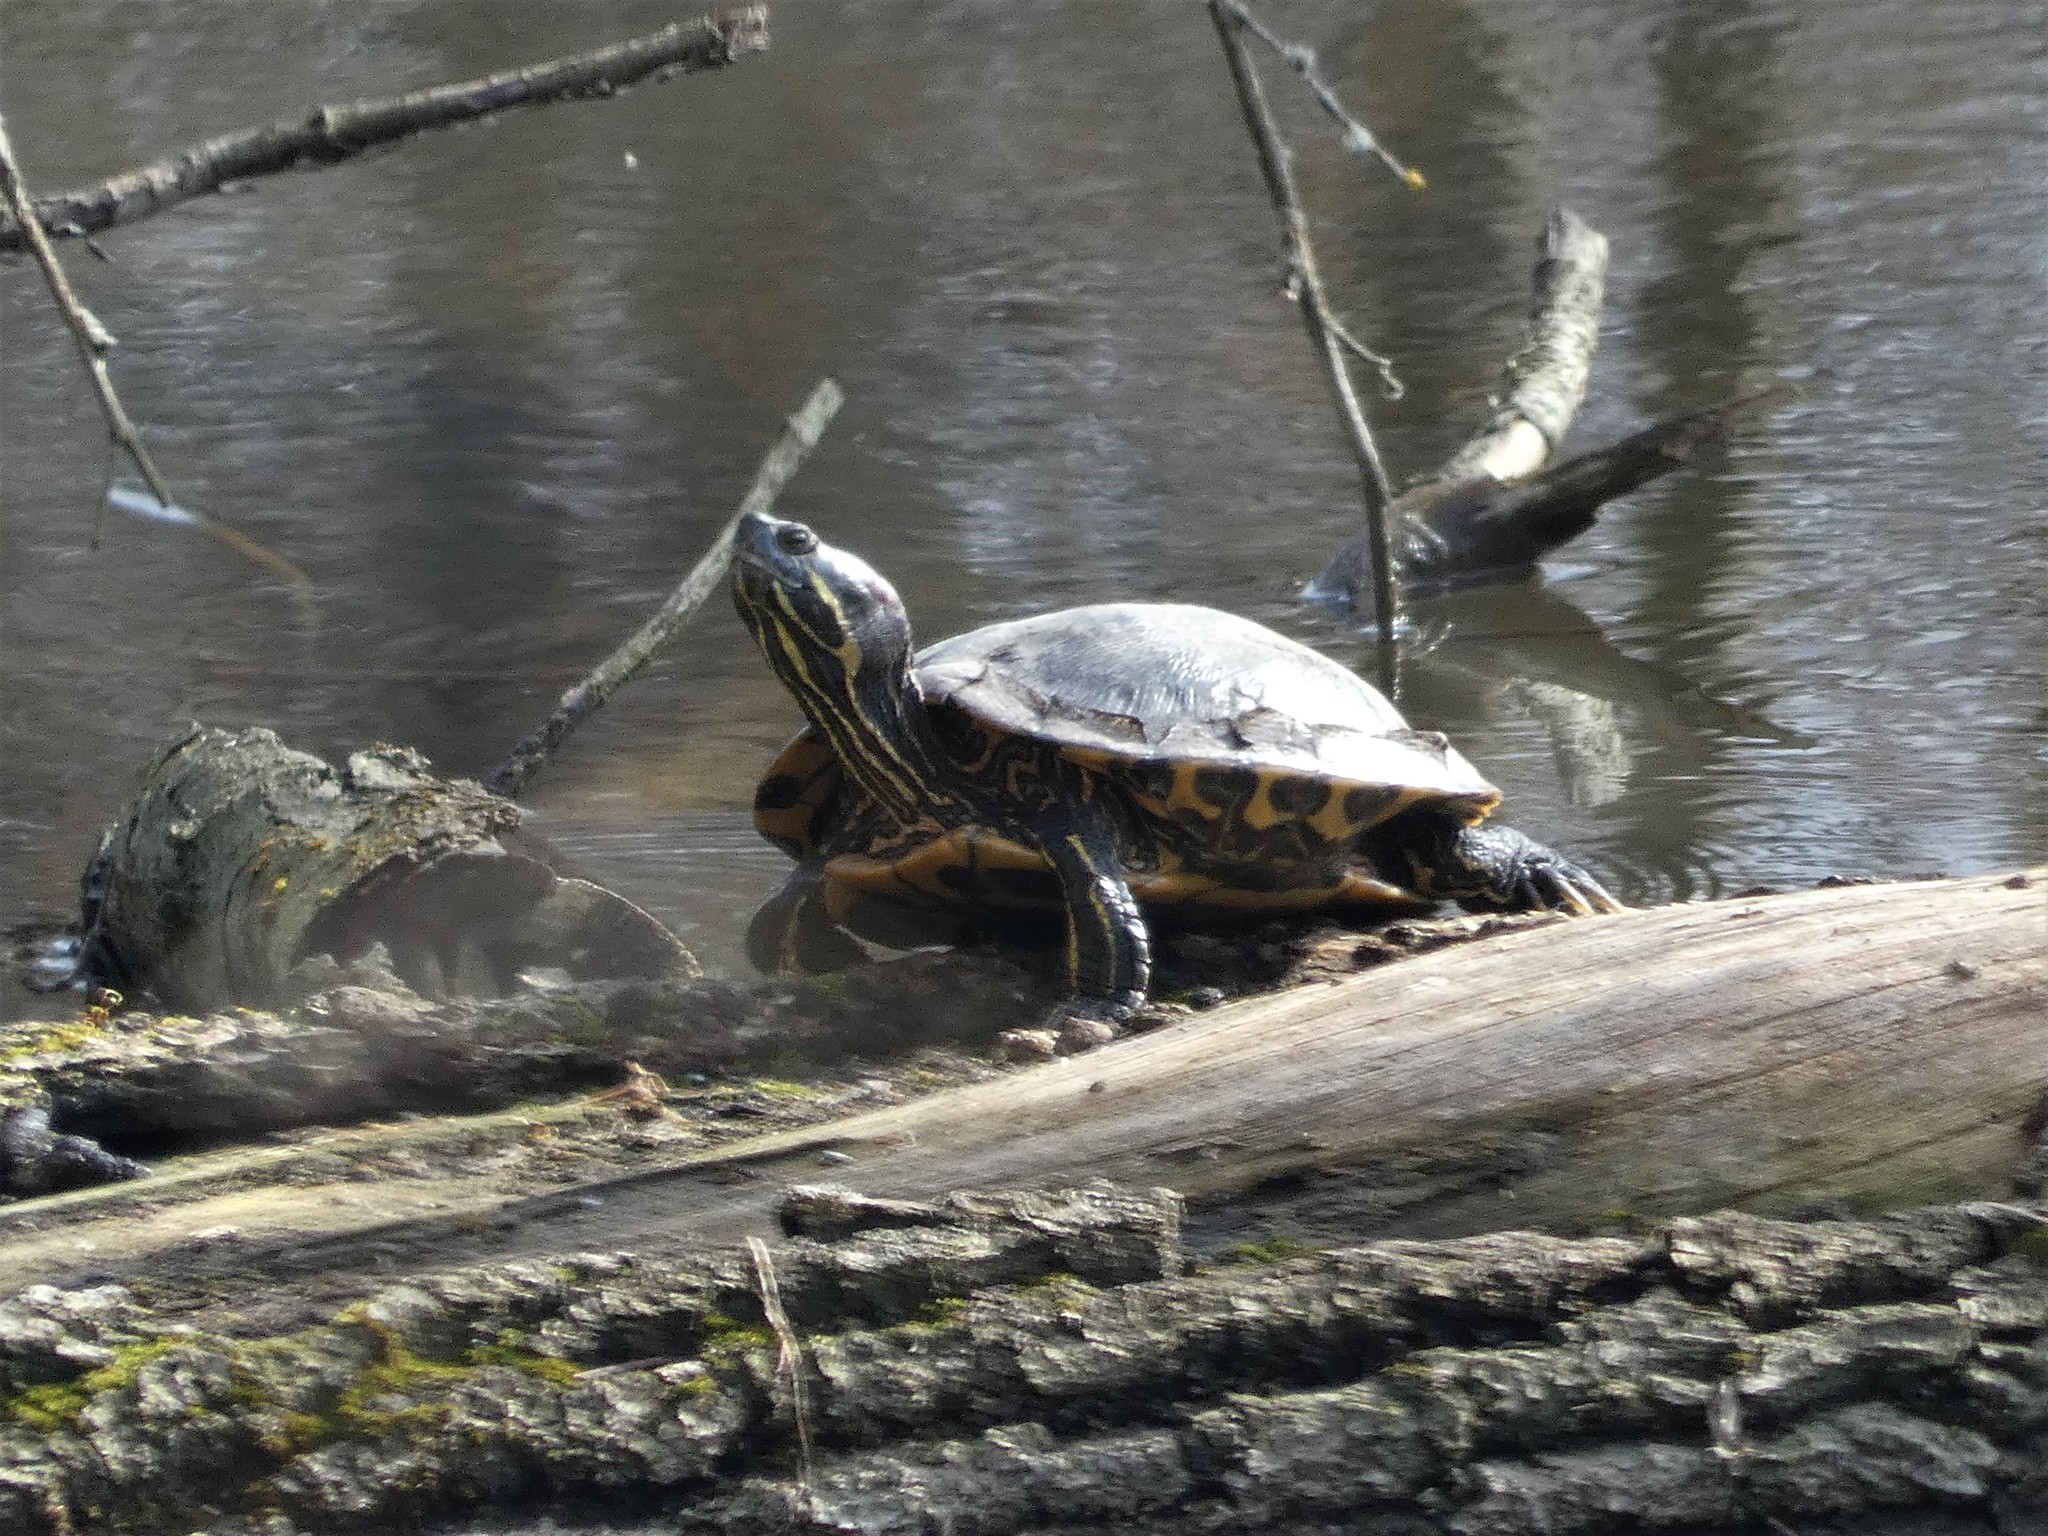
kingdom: Animalia
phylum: Chordata
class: Testudines
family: Emydidae
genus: Trachemys
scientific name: Trachemys scripta
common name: Slider
